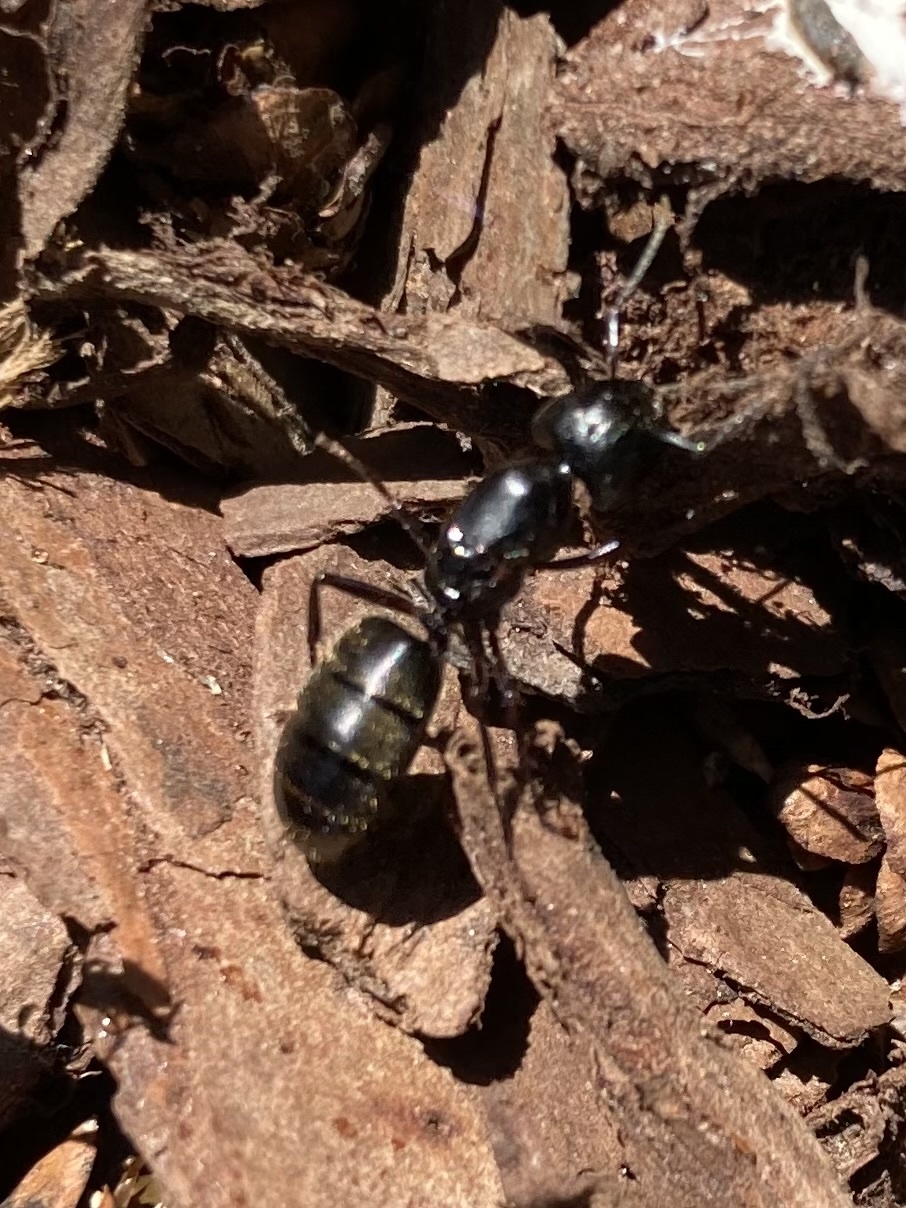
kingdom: Animalia
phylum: Arthropoda
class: Insecta
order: Hymenoptera
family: Formicidae
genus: Camponotus
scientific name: Camponotus pennsylvanicus
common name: Black carpenter ant
